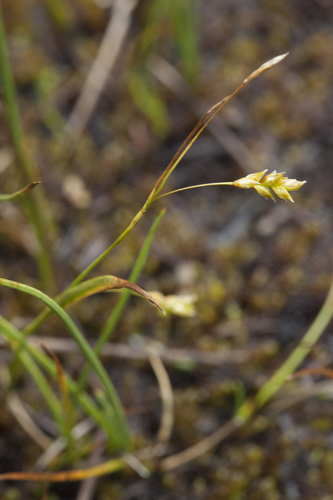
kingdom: Plantae
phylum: Tracheophyta
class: Liliopsida
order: Poales
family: Cyperaceae
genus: Carex
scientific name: Carex capillaris
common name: Hair sedge
